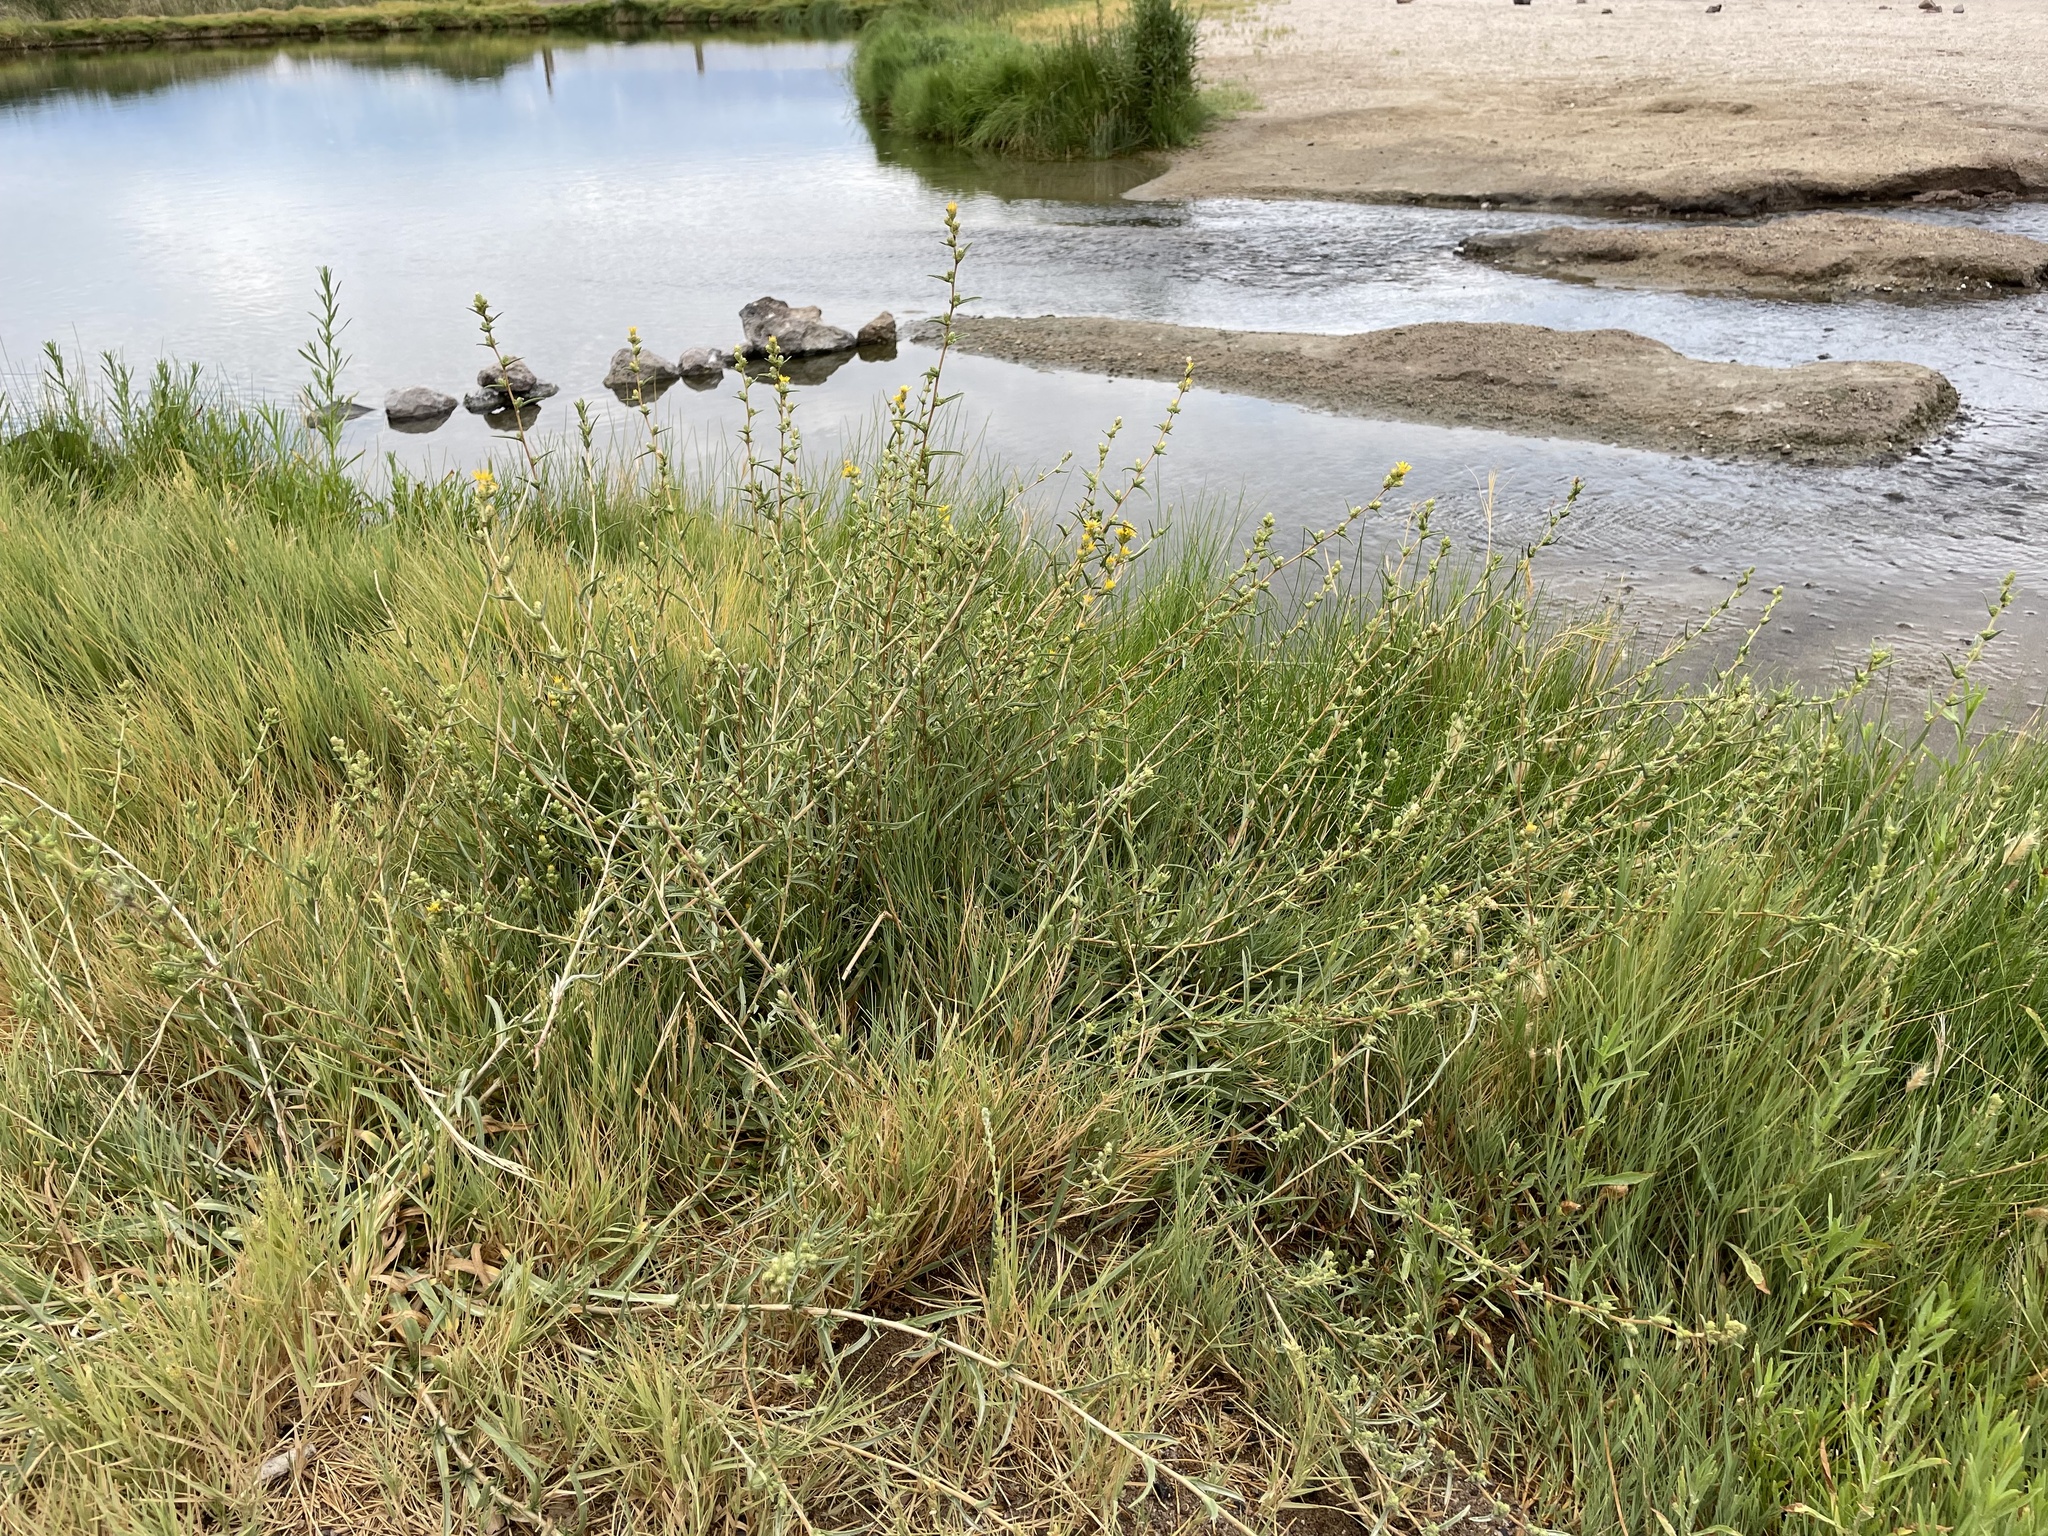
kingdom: Plantae
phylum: Tracheophyta
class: Magnoliopsida
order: Asterales
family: Asteraceae
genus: Pyrrocoma
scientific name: Pyrrocoma racemosa
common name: Clustered goldenweed
